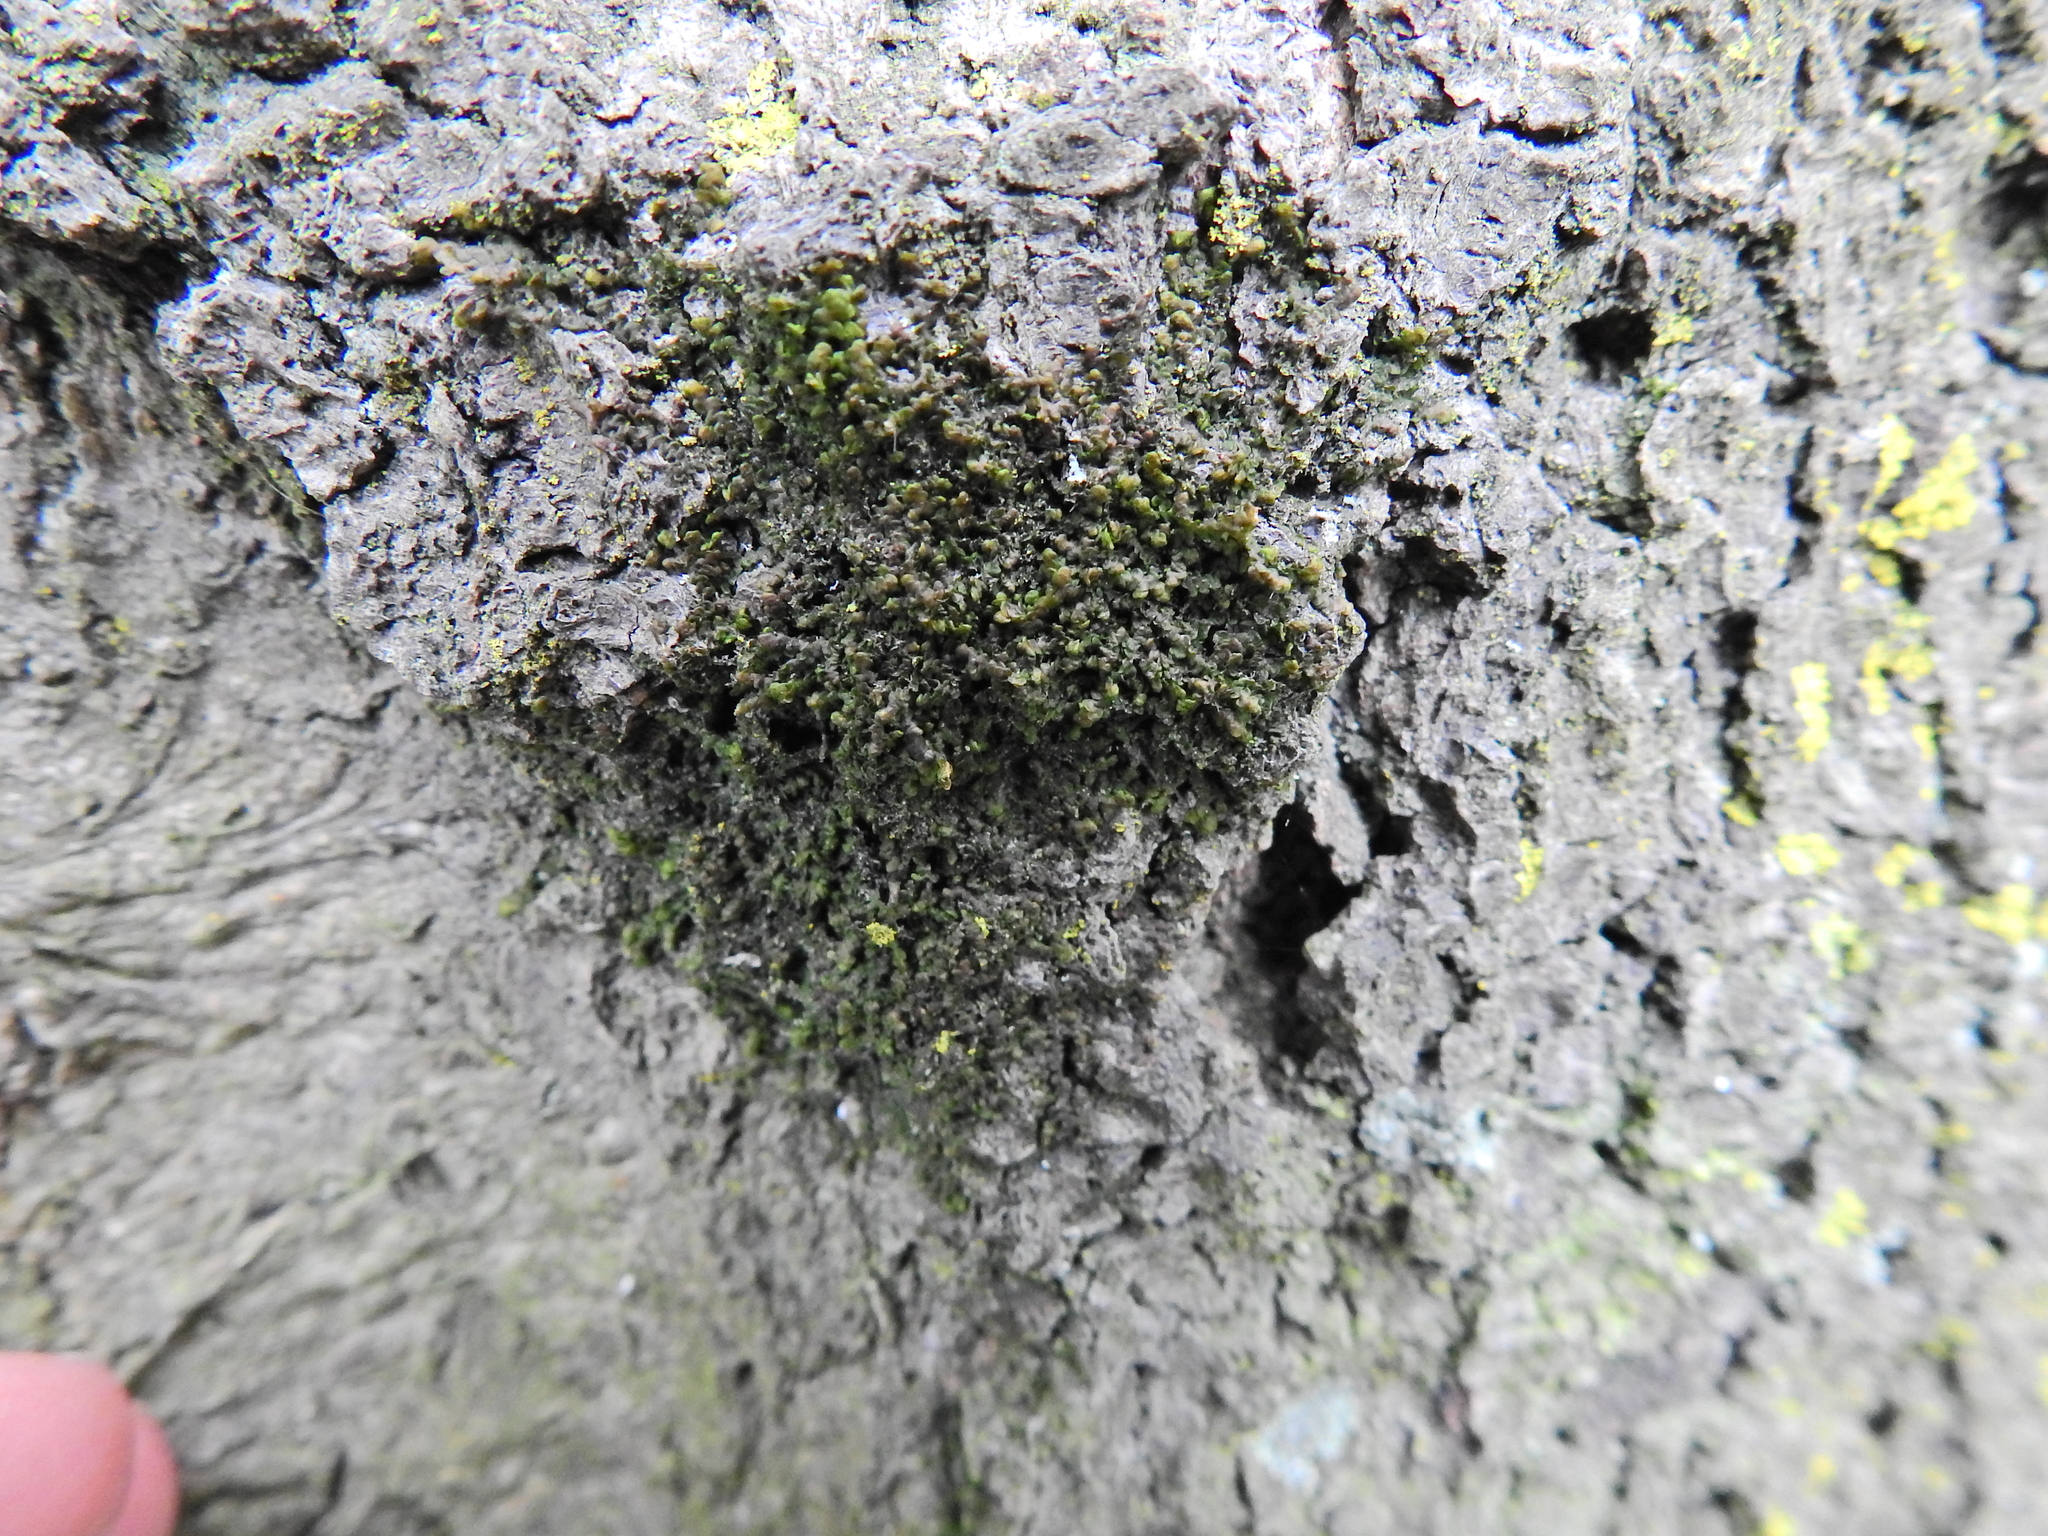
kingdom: Plantae
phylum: Marchantiophyta
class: Jungermanniopsida
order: Porellales
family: Frullaniaceae
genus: Frullania
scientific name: Frullania dilatata
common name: Dilated scalewort
